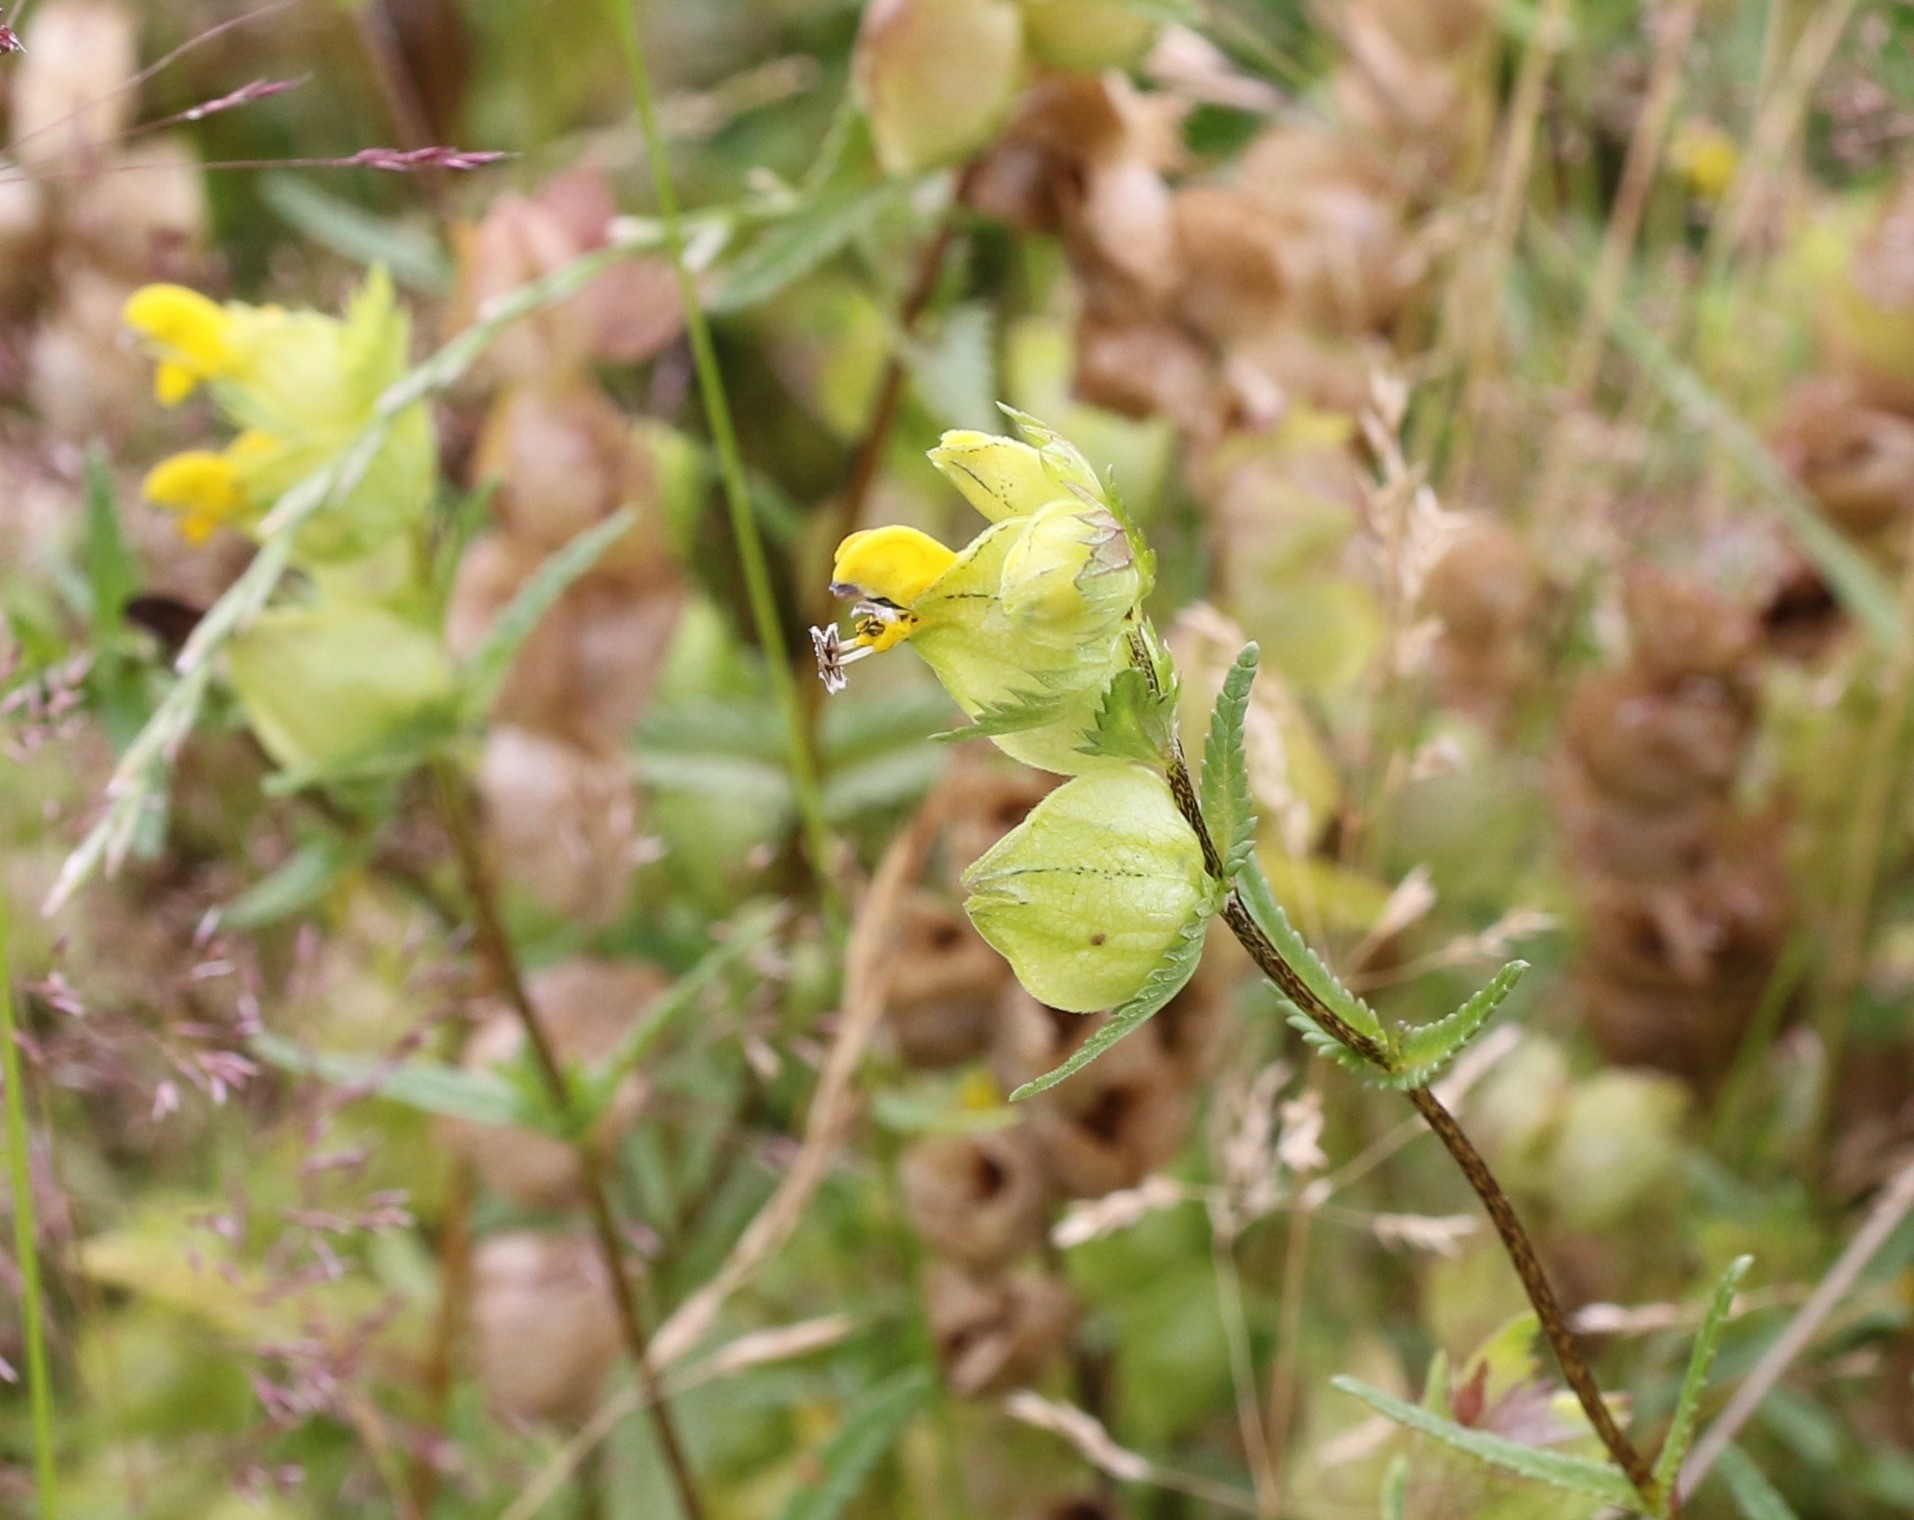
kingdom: Plantae
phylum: Tracheophyta
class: Magnoliopsida
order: Lamiales
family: Orobanchaceae
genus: Rhinanthus
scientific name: Rhinanthus minor
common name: Yellow-rattle
